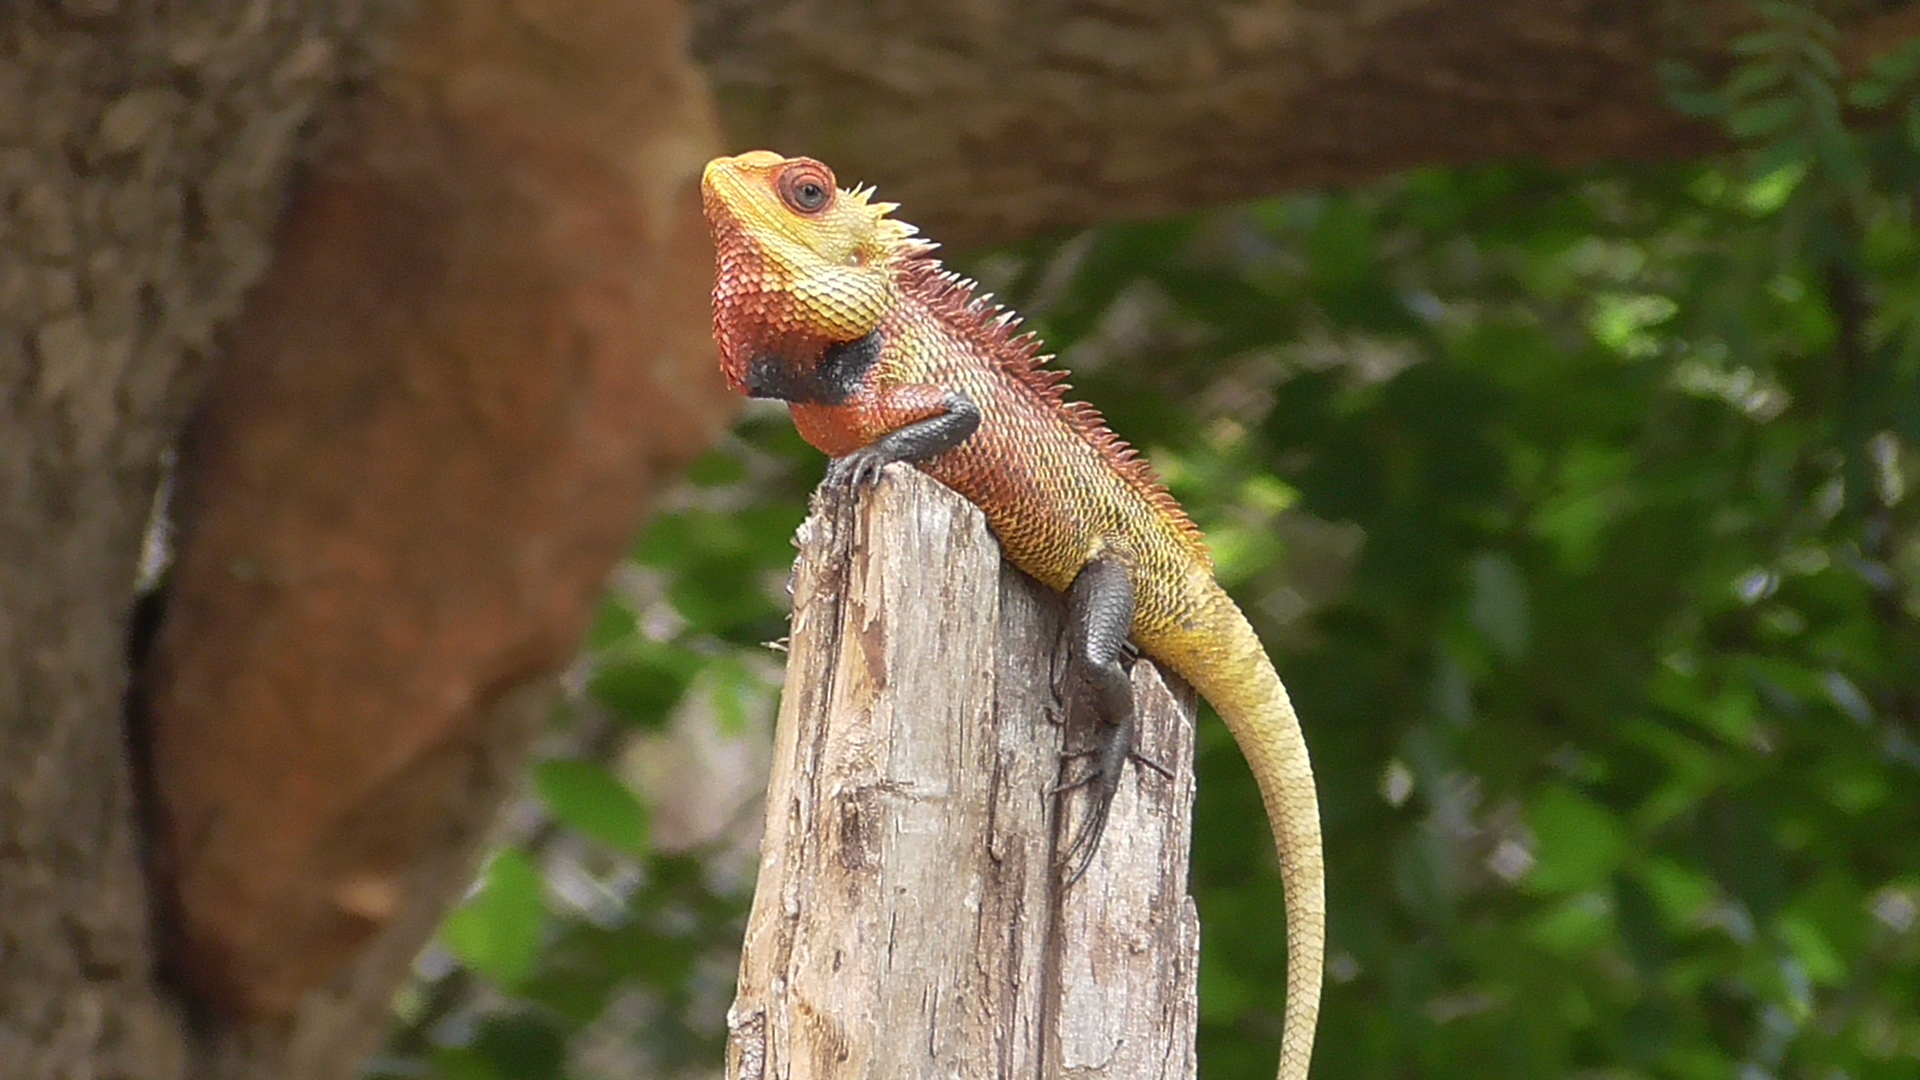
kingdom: Animalia
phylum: Chordata
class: Squamata
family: Agamidae
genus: Calotes
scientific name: Calotes versicolor
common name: Oriental garden lizard
